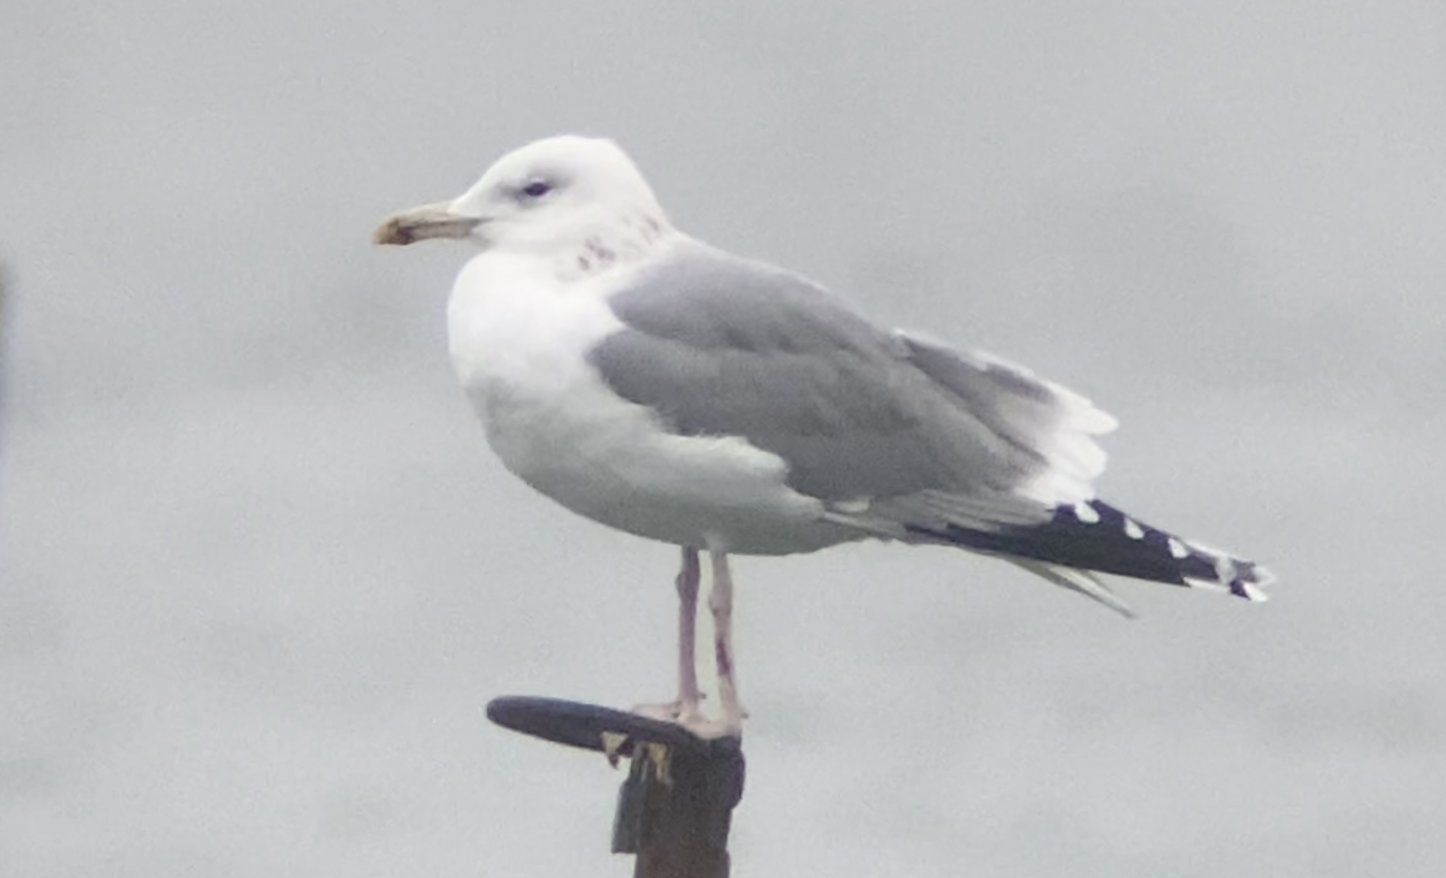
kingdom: Animalia
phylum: Chordata
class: Aves
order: Charadriiformes
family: Laridae
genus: Larus
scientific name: Larus cachinnans
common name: Caspian gull
